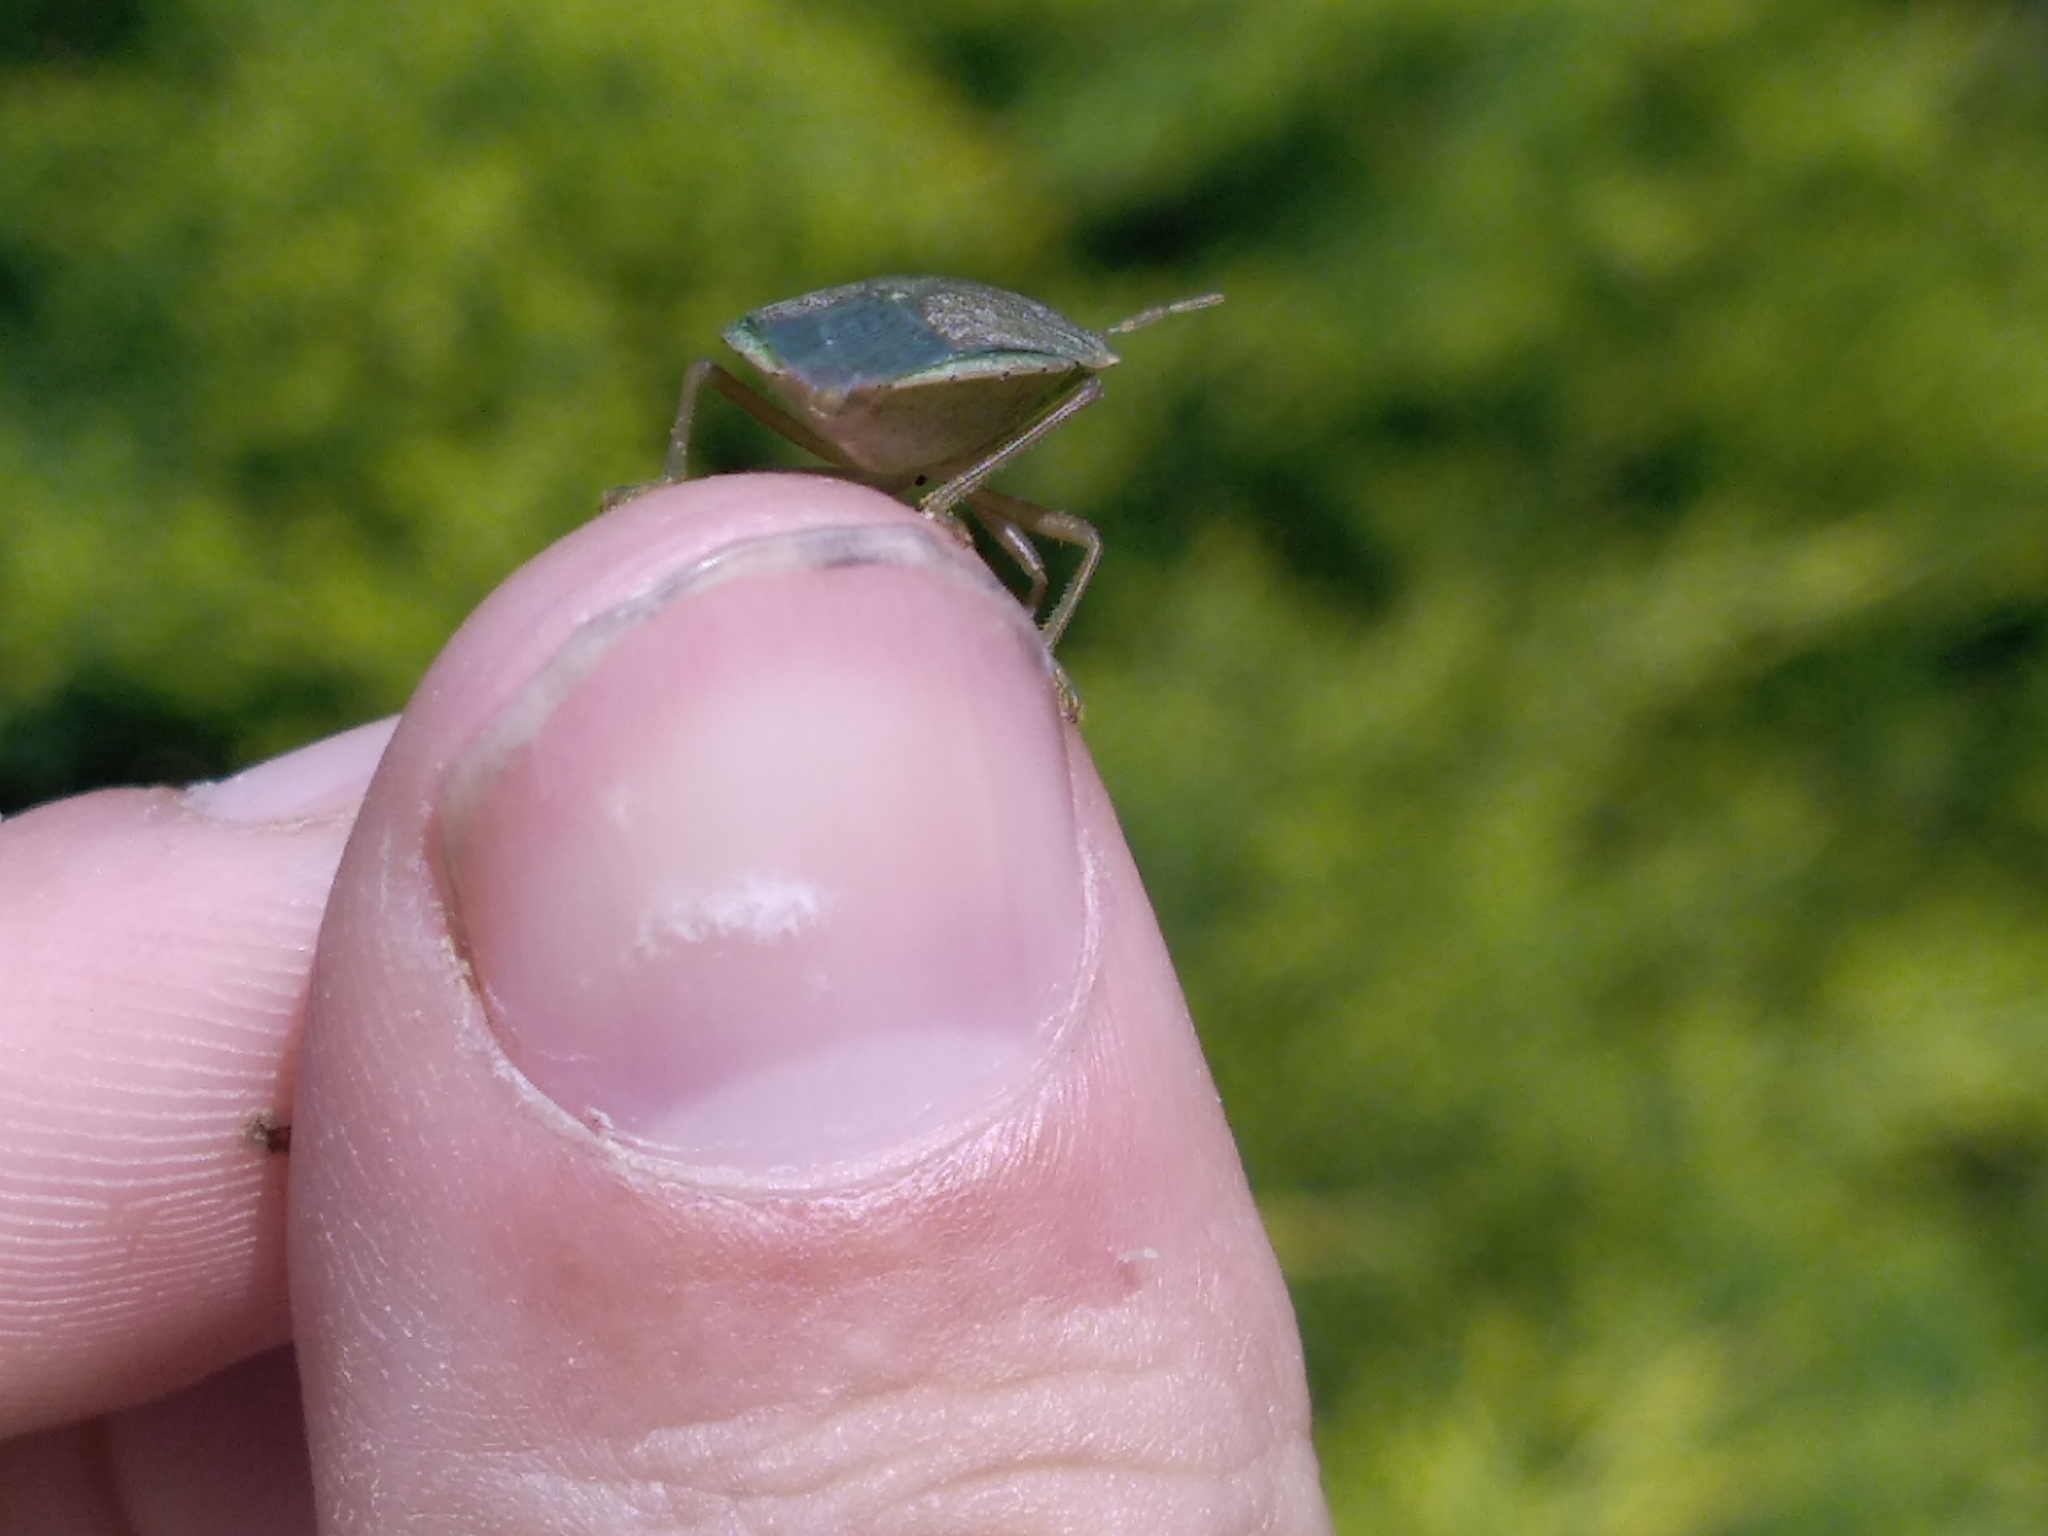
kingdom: Animalia
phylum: Arthropoda
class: Insecta
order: Hemiptera
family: Pentatomidae
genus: Nezara
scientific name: Nezara viridula
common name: Southern green stink bug
